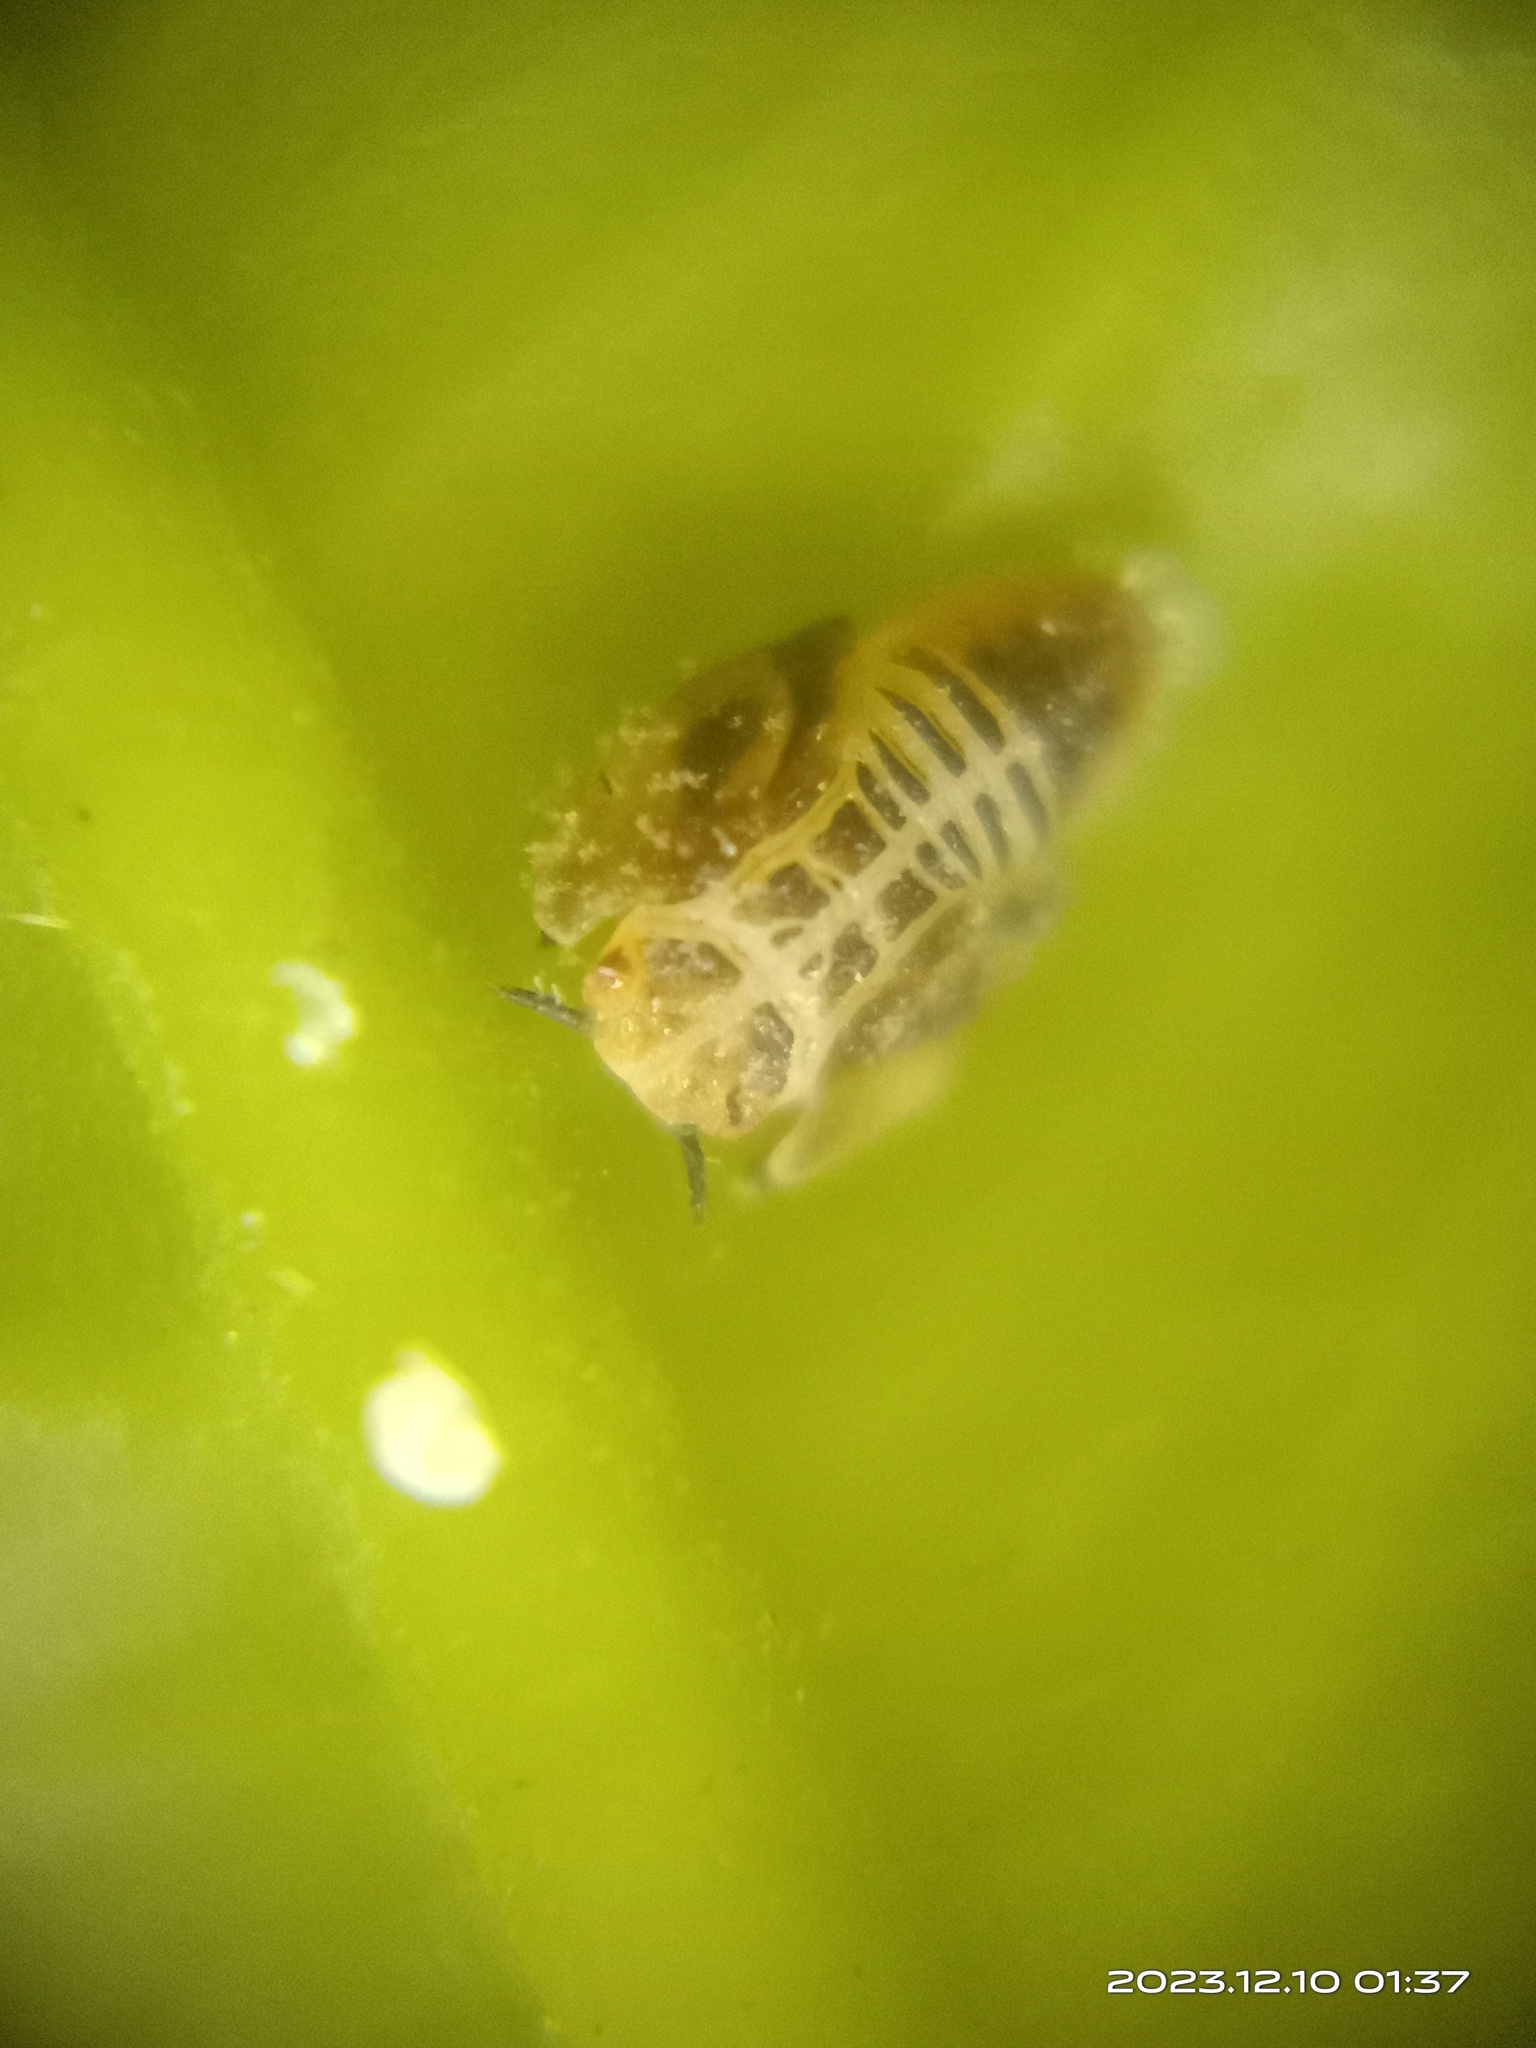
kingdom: Animalia
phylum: Arthropoda
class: Insecta
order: Hemiptera
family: Liviidae
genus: Diaphorina
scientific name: Diaphorina citri
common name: Asian citrus psyllid
